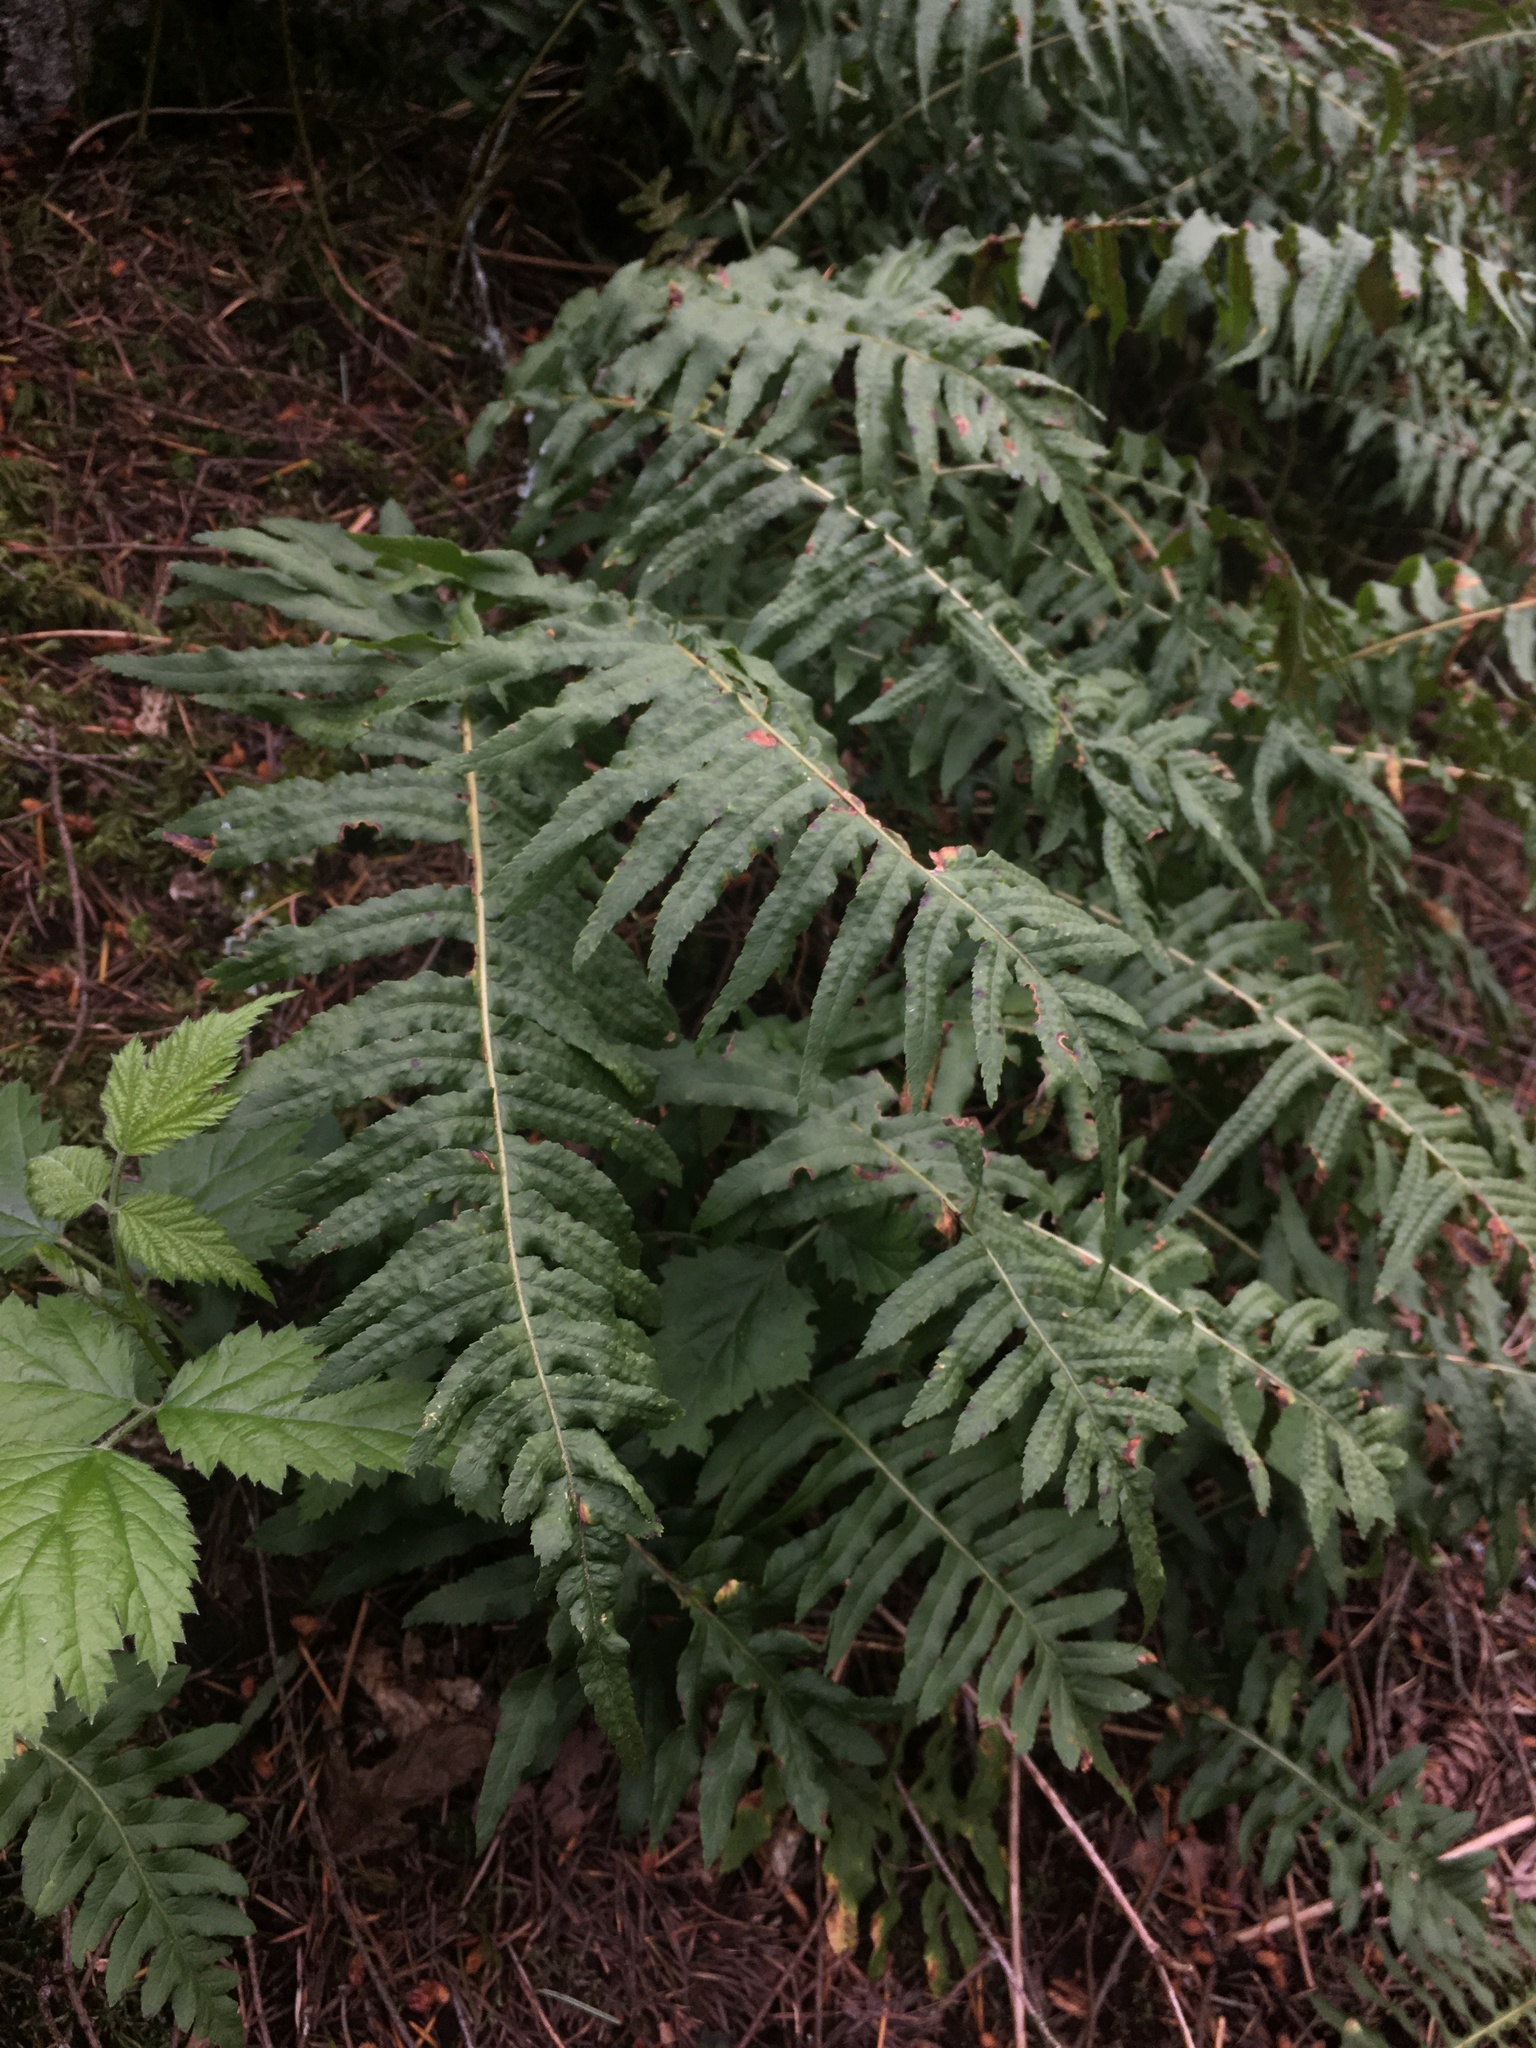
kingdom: Plantae
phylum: Tracheophyta
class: Polypodiopsida
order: Polypodiales
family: Polypodiaceae
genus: Polypodium
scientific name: Polypodium glycyrrhiza
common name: Licorice fern
